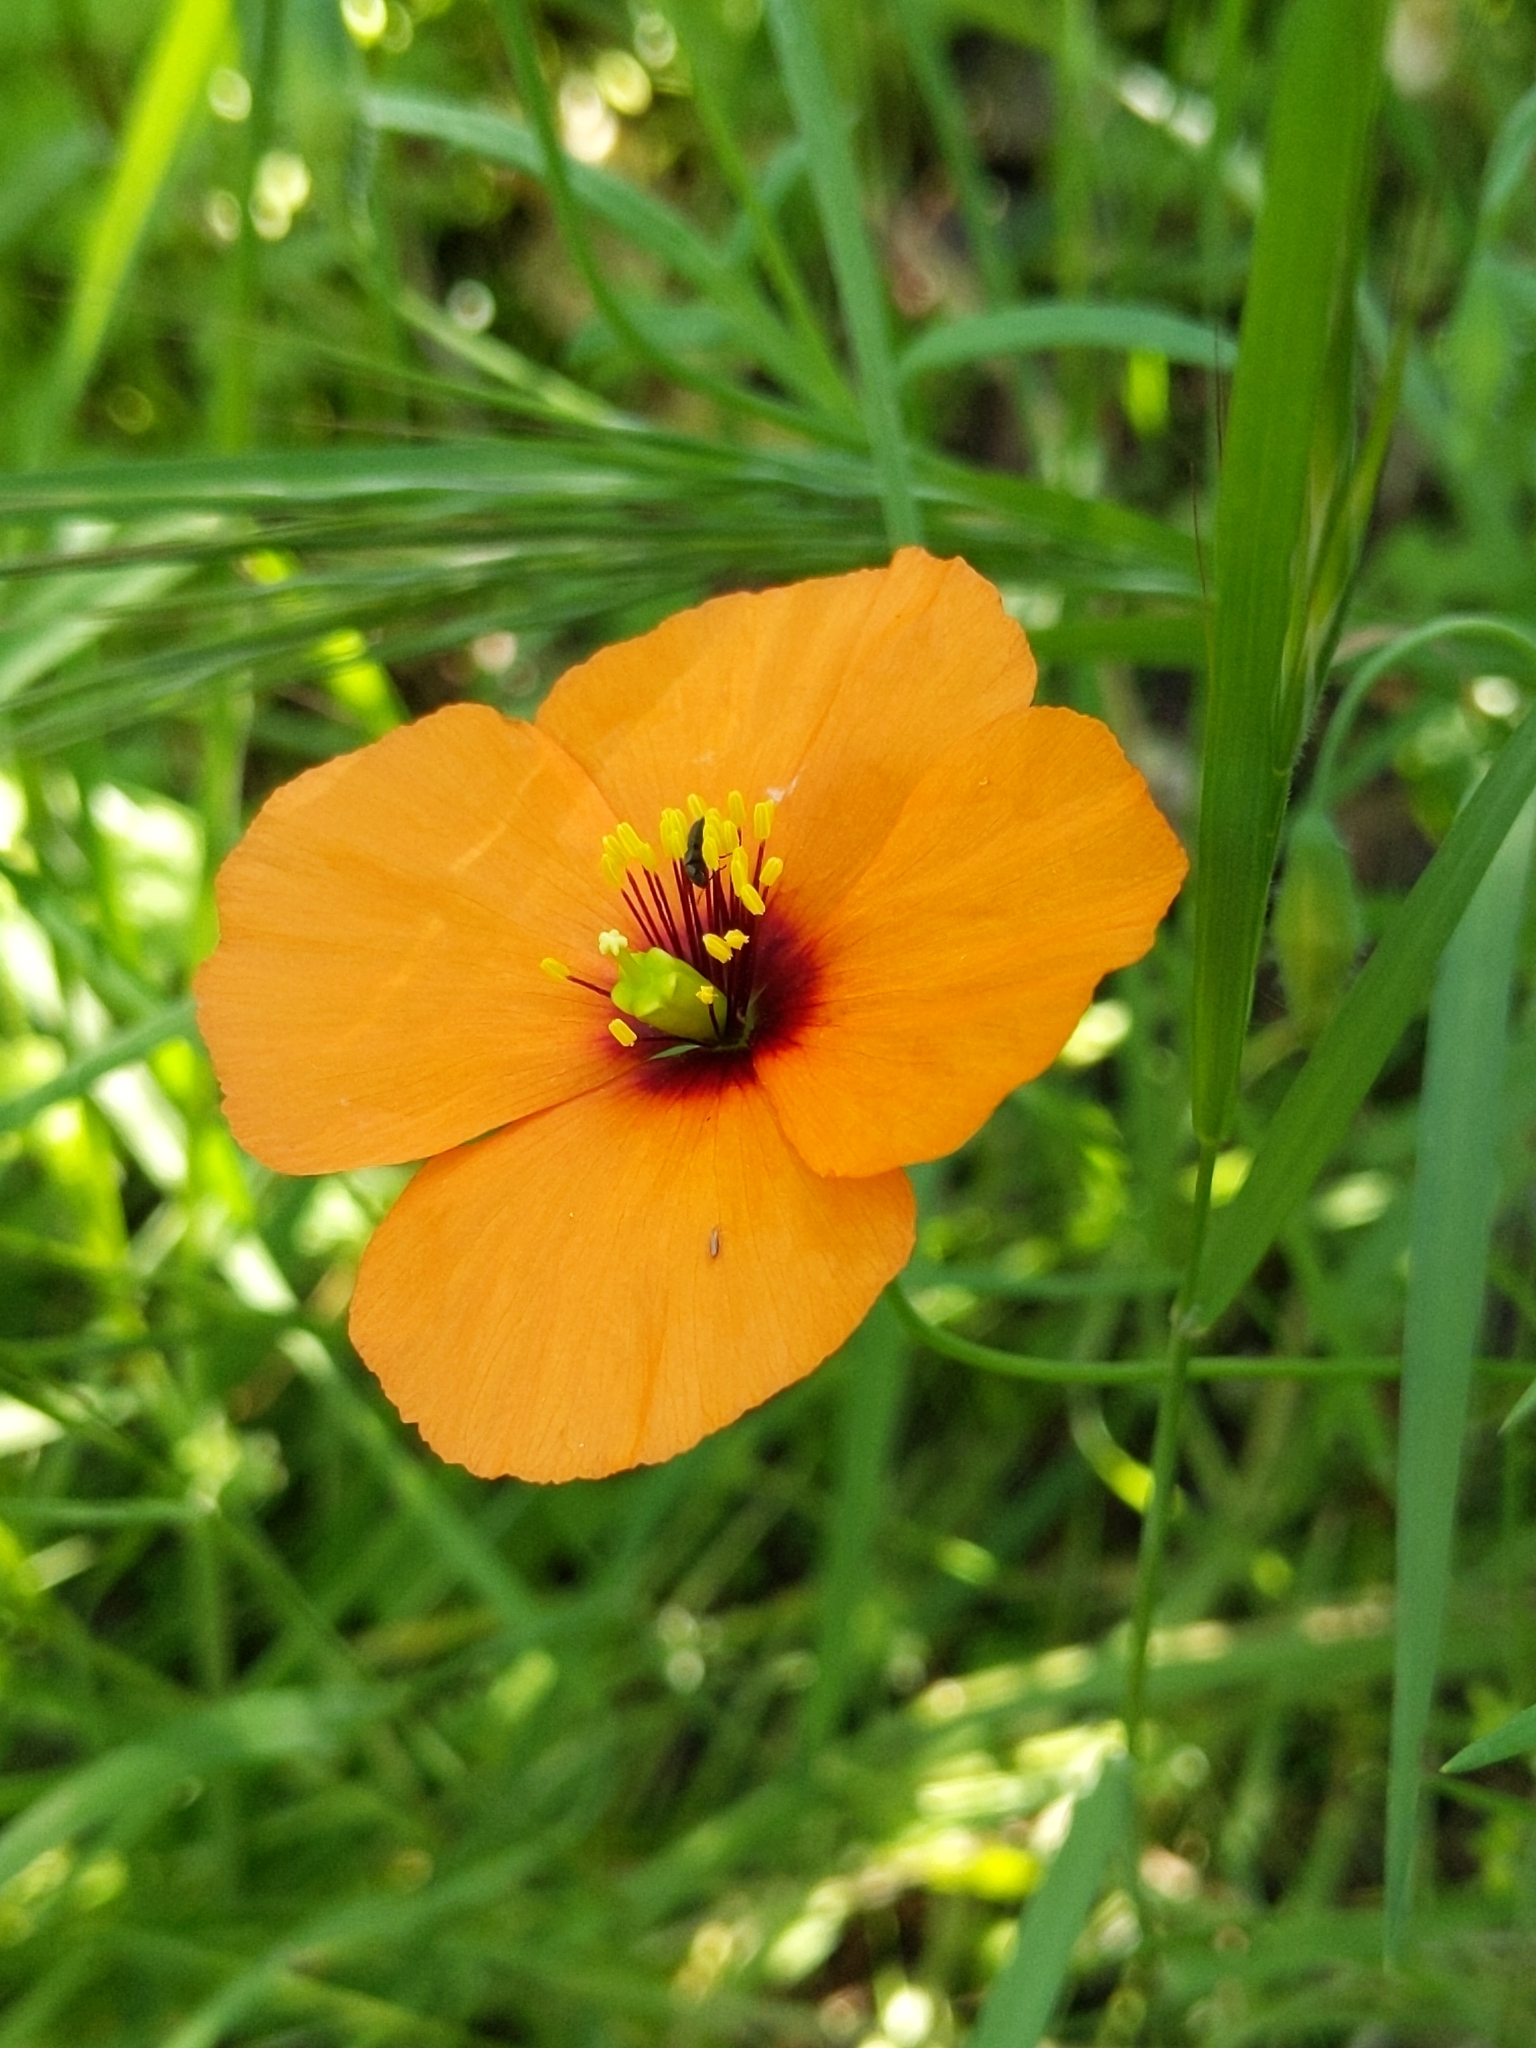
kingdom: Plantae
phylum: Tracheophyta
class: Magnoliopsida
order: Ranunculales
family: Papaveraceae
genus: Stylomecon
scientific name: Stylomecon heterophylla
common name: Flaming-poppy
